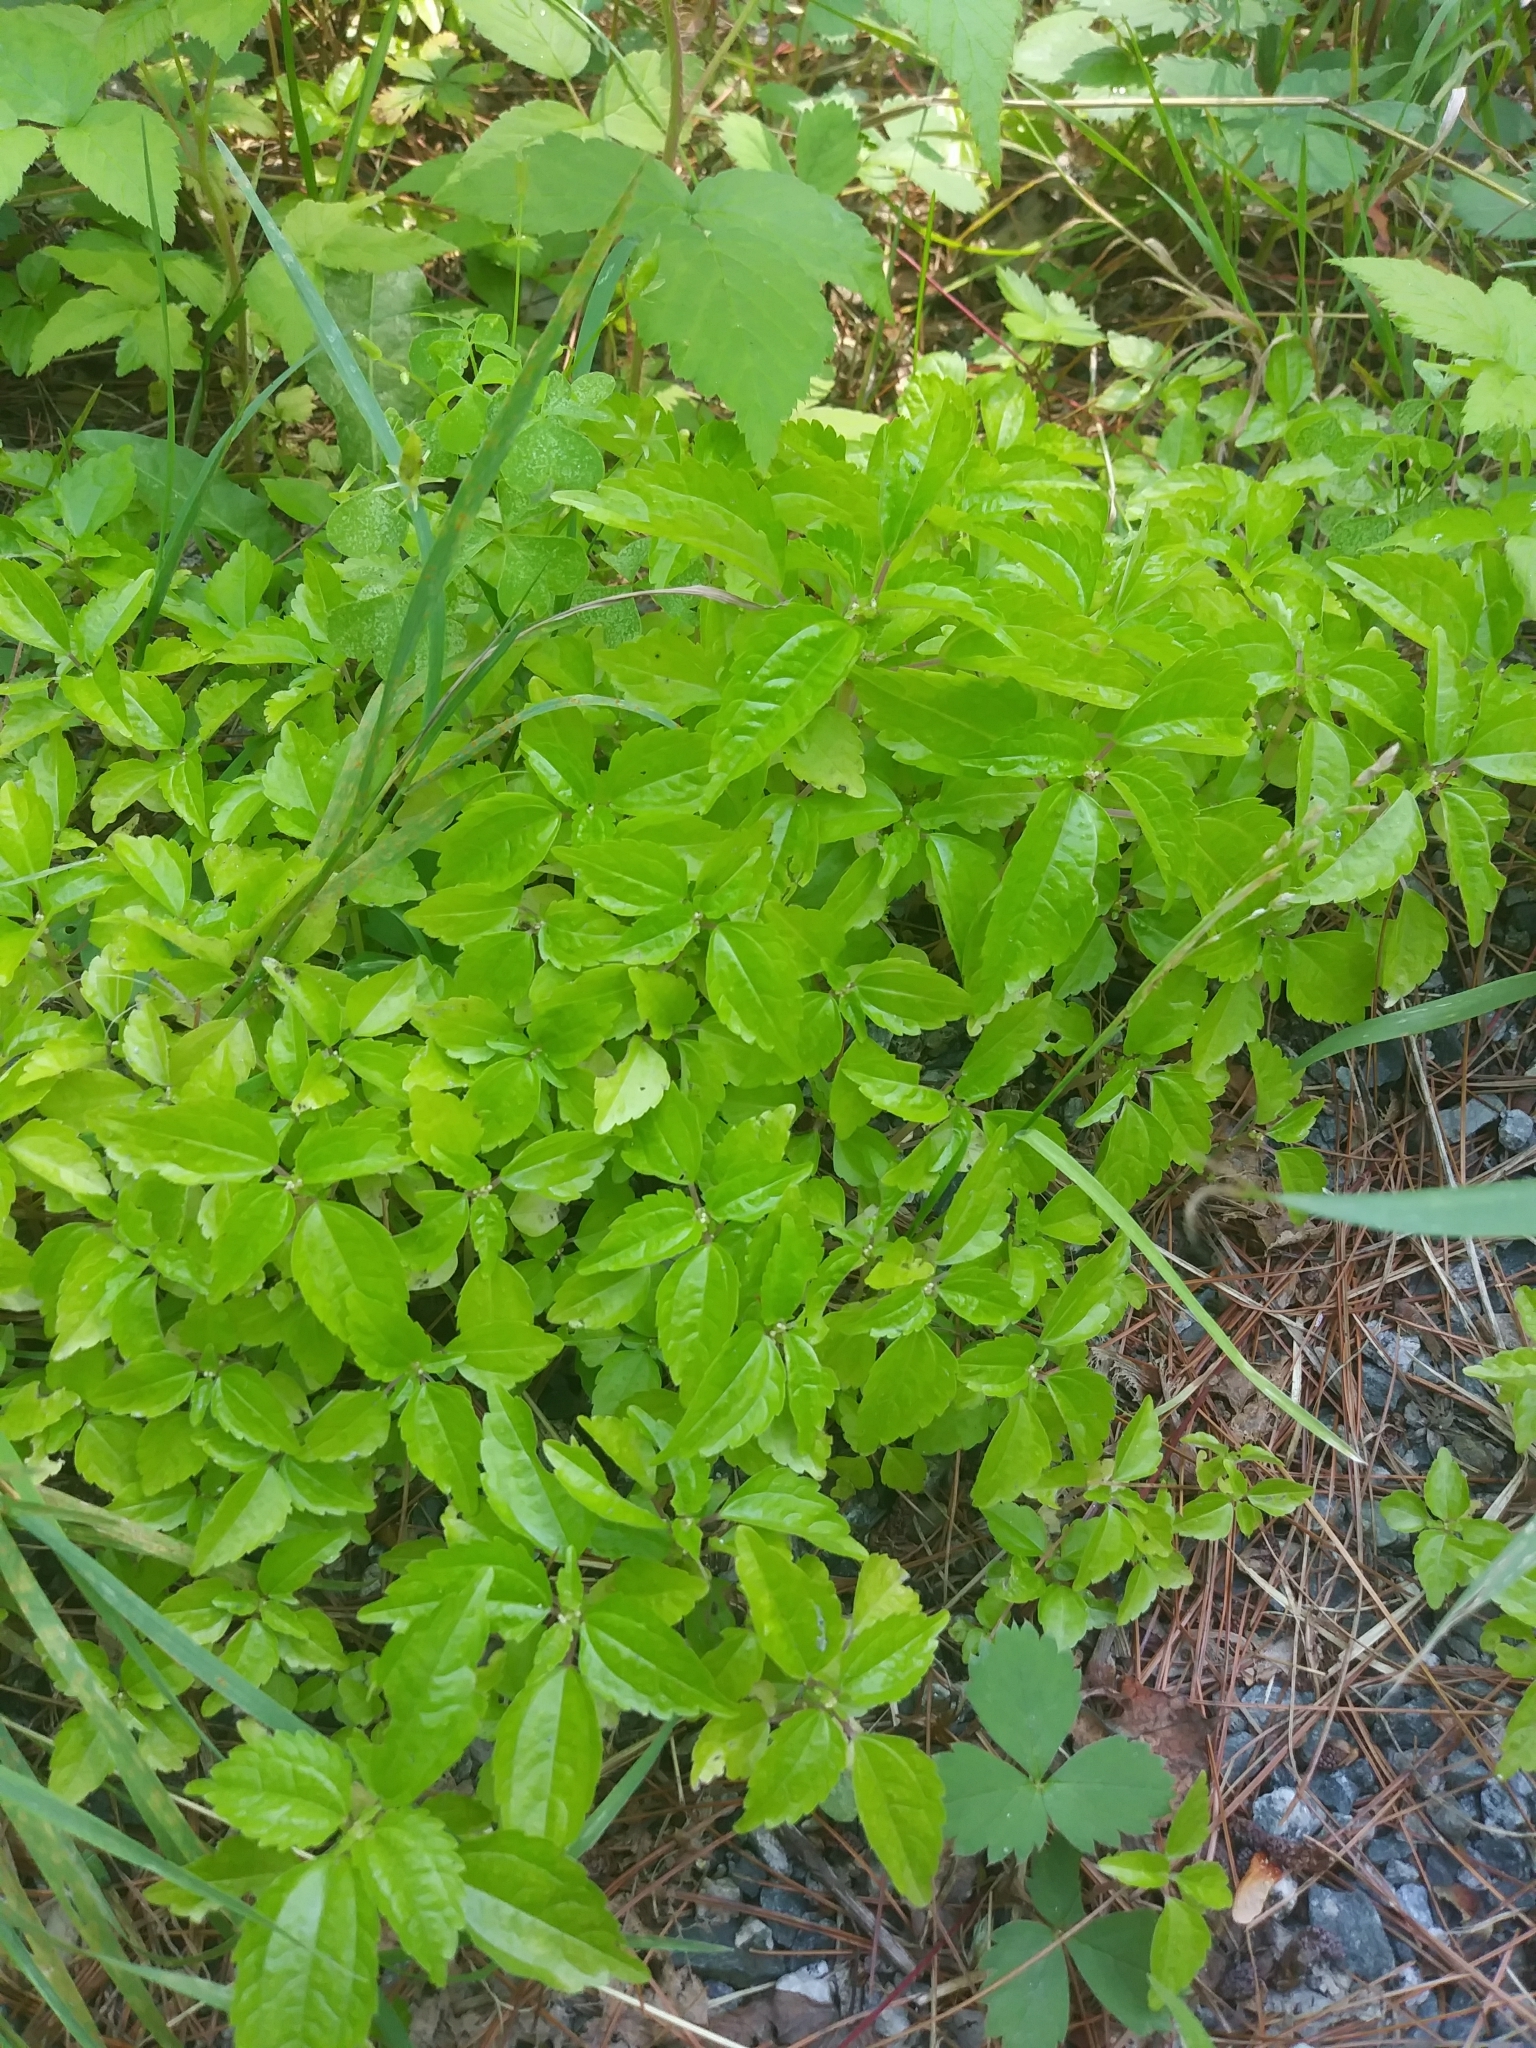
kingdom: Plantae
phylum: Tracheophyta
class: Magnoliopsida
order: Rosales
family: Urticaceae
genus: Pilea
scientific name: Pilea pumila
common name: Clearweed
